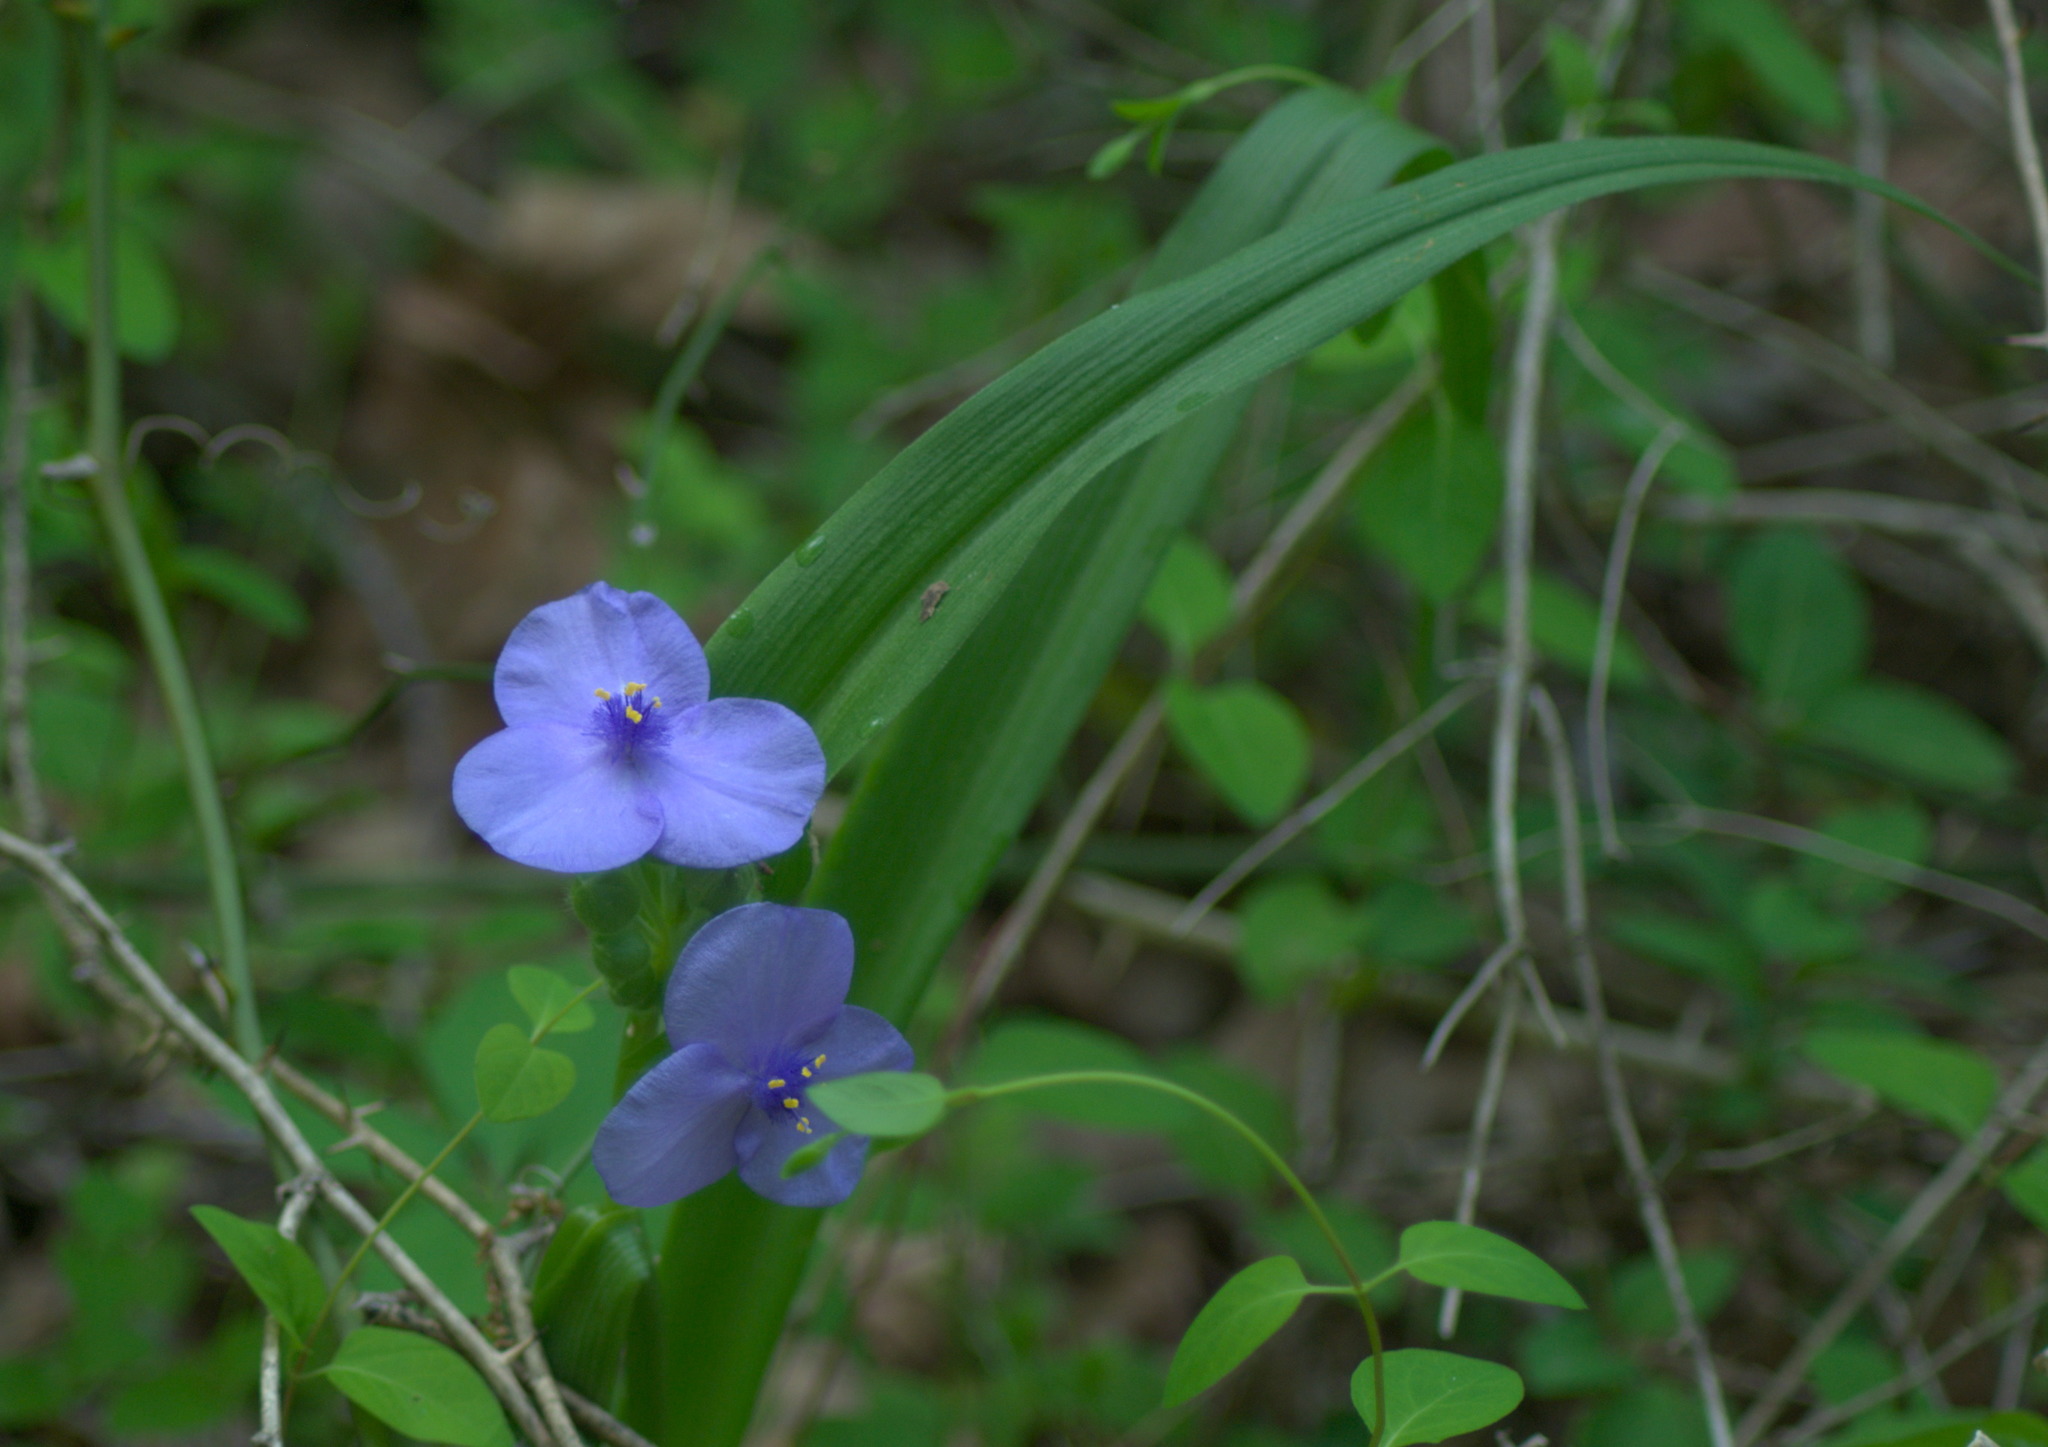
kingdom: Plantae
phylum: Tracheophyta
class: Liliopsida
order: Commelinales
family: Commelinaceae
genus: Tradescantia
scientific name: Tradescantia virginiana
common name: Spiderwort
